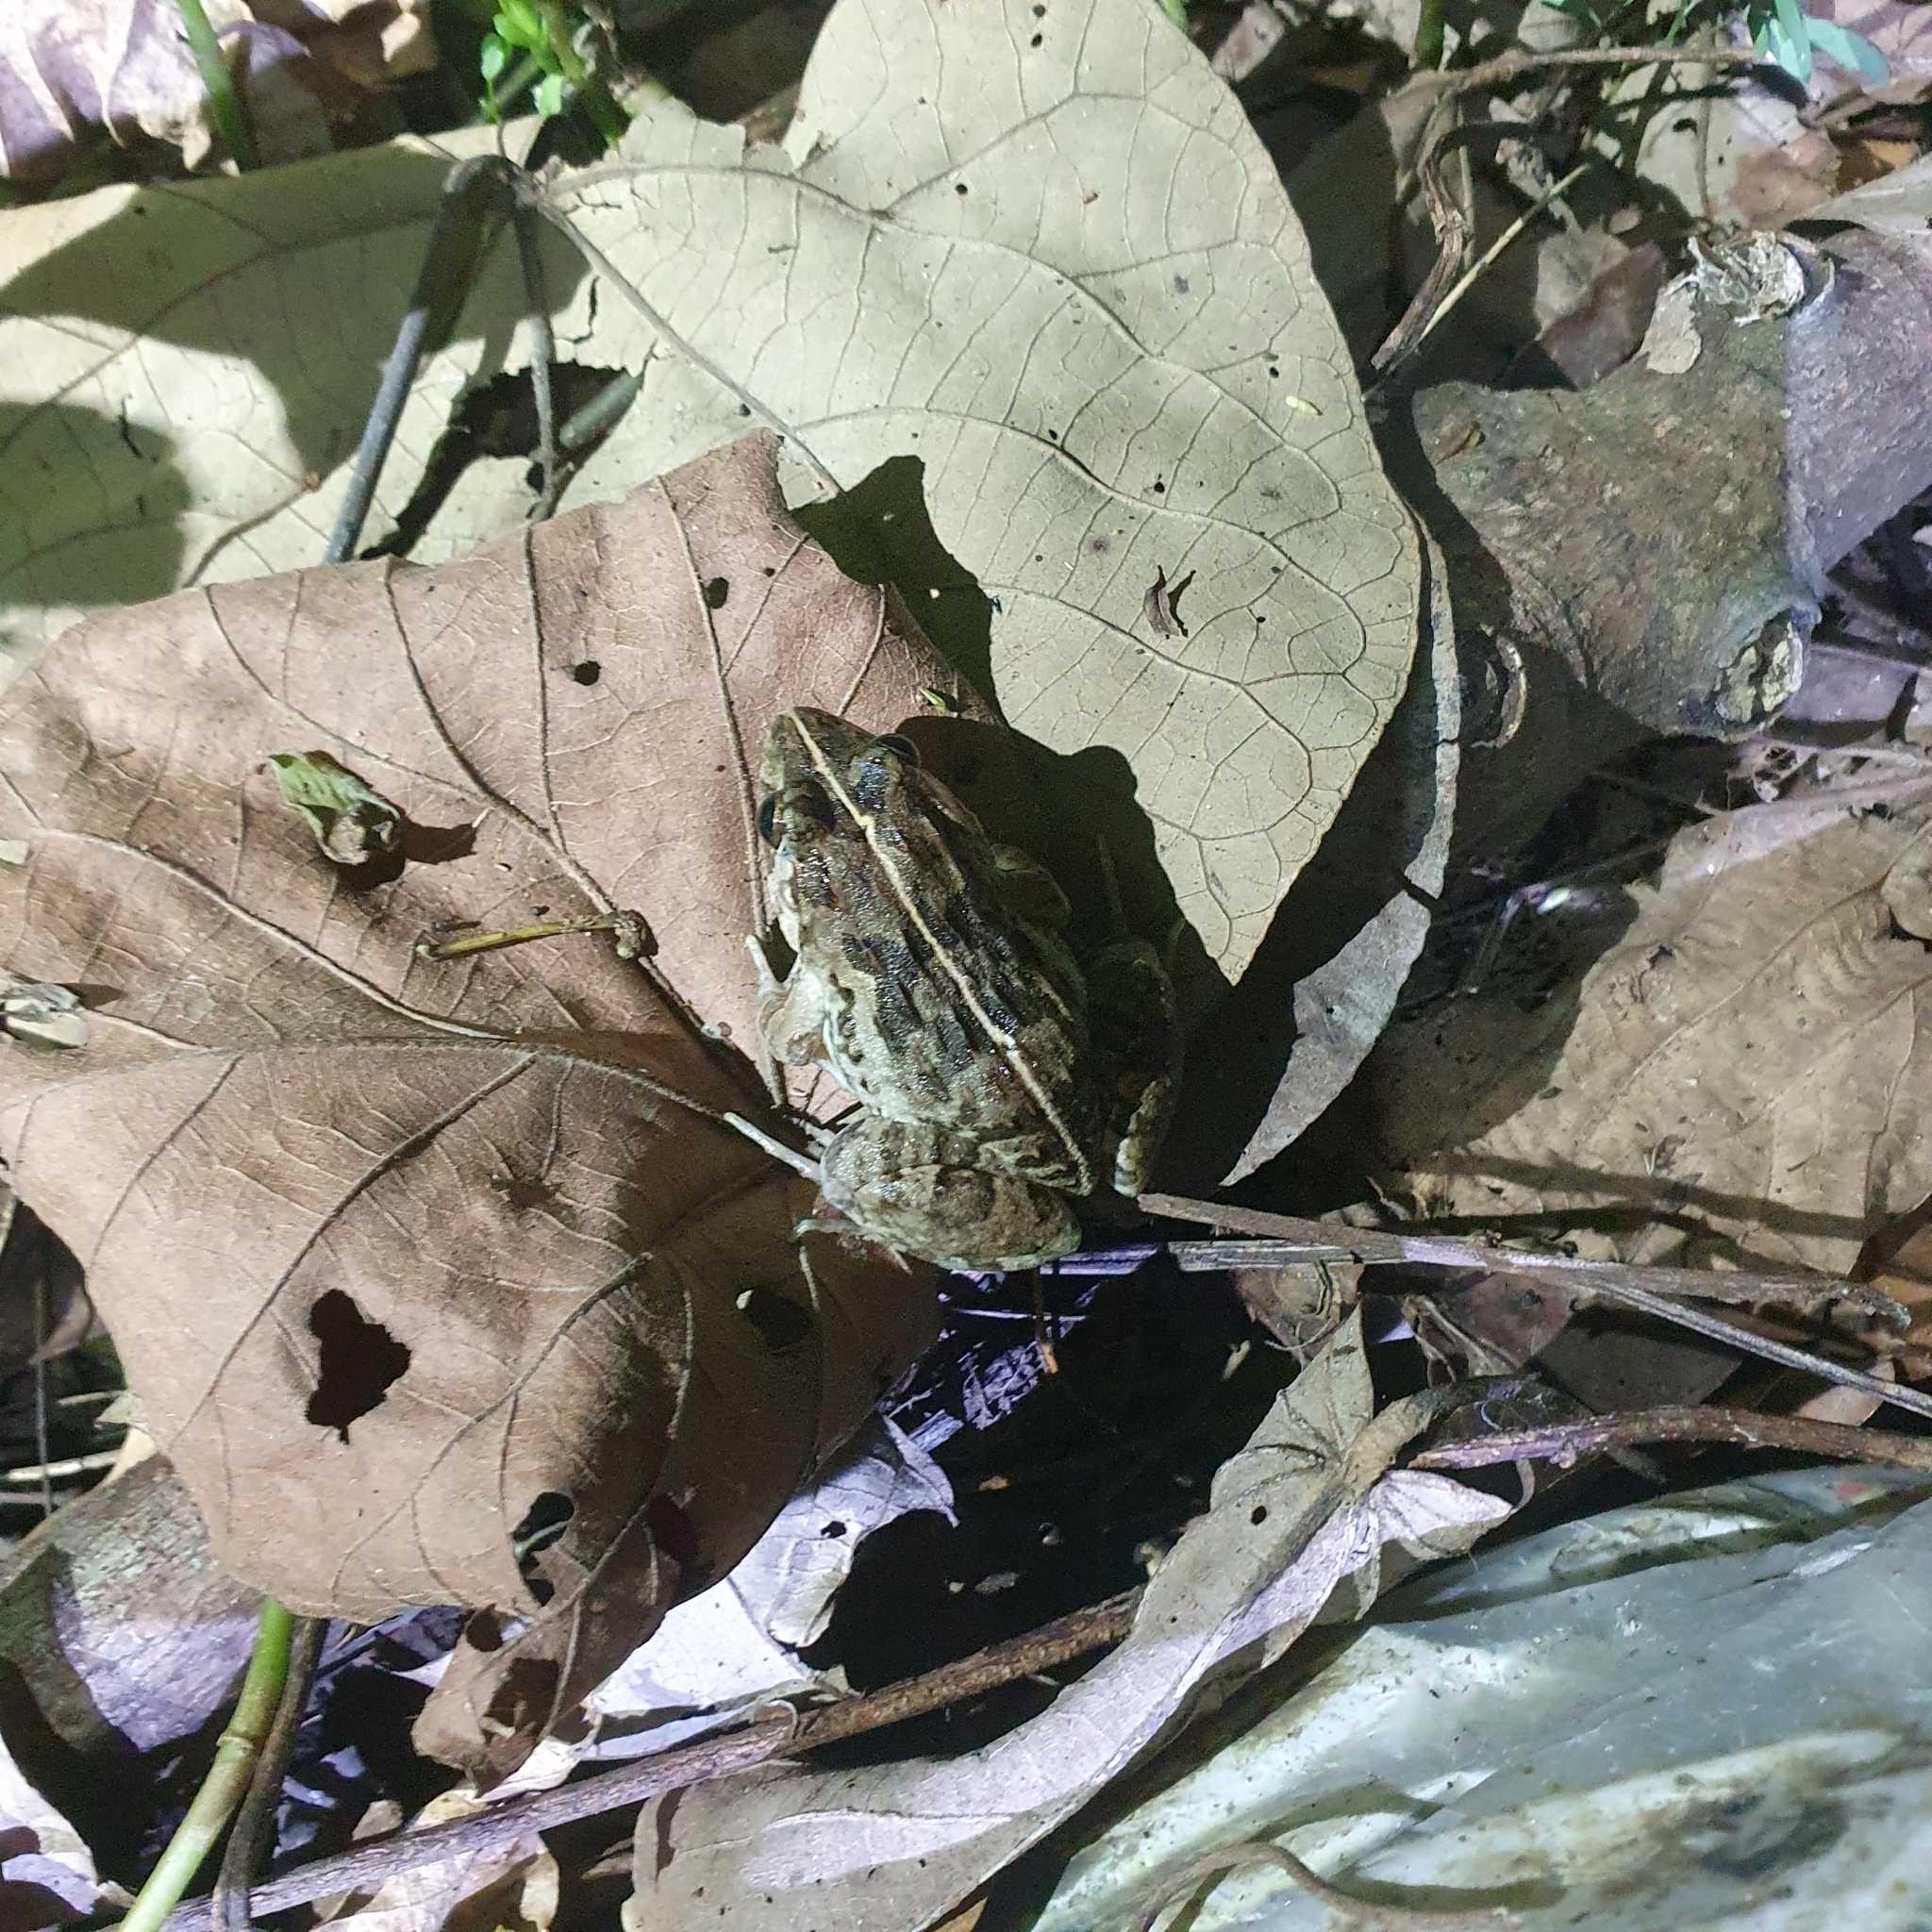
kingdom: Animalia
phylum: Chordata
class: Amphibia
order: Anura
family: Dicroglossidae
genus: Fejervarya
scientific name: Fejervarya limnocharis
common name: Asian grass frog/common pond frog/field frog/grass frog/indian rice frog
